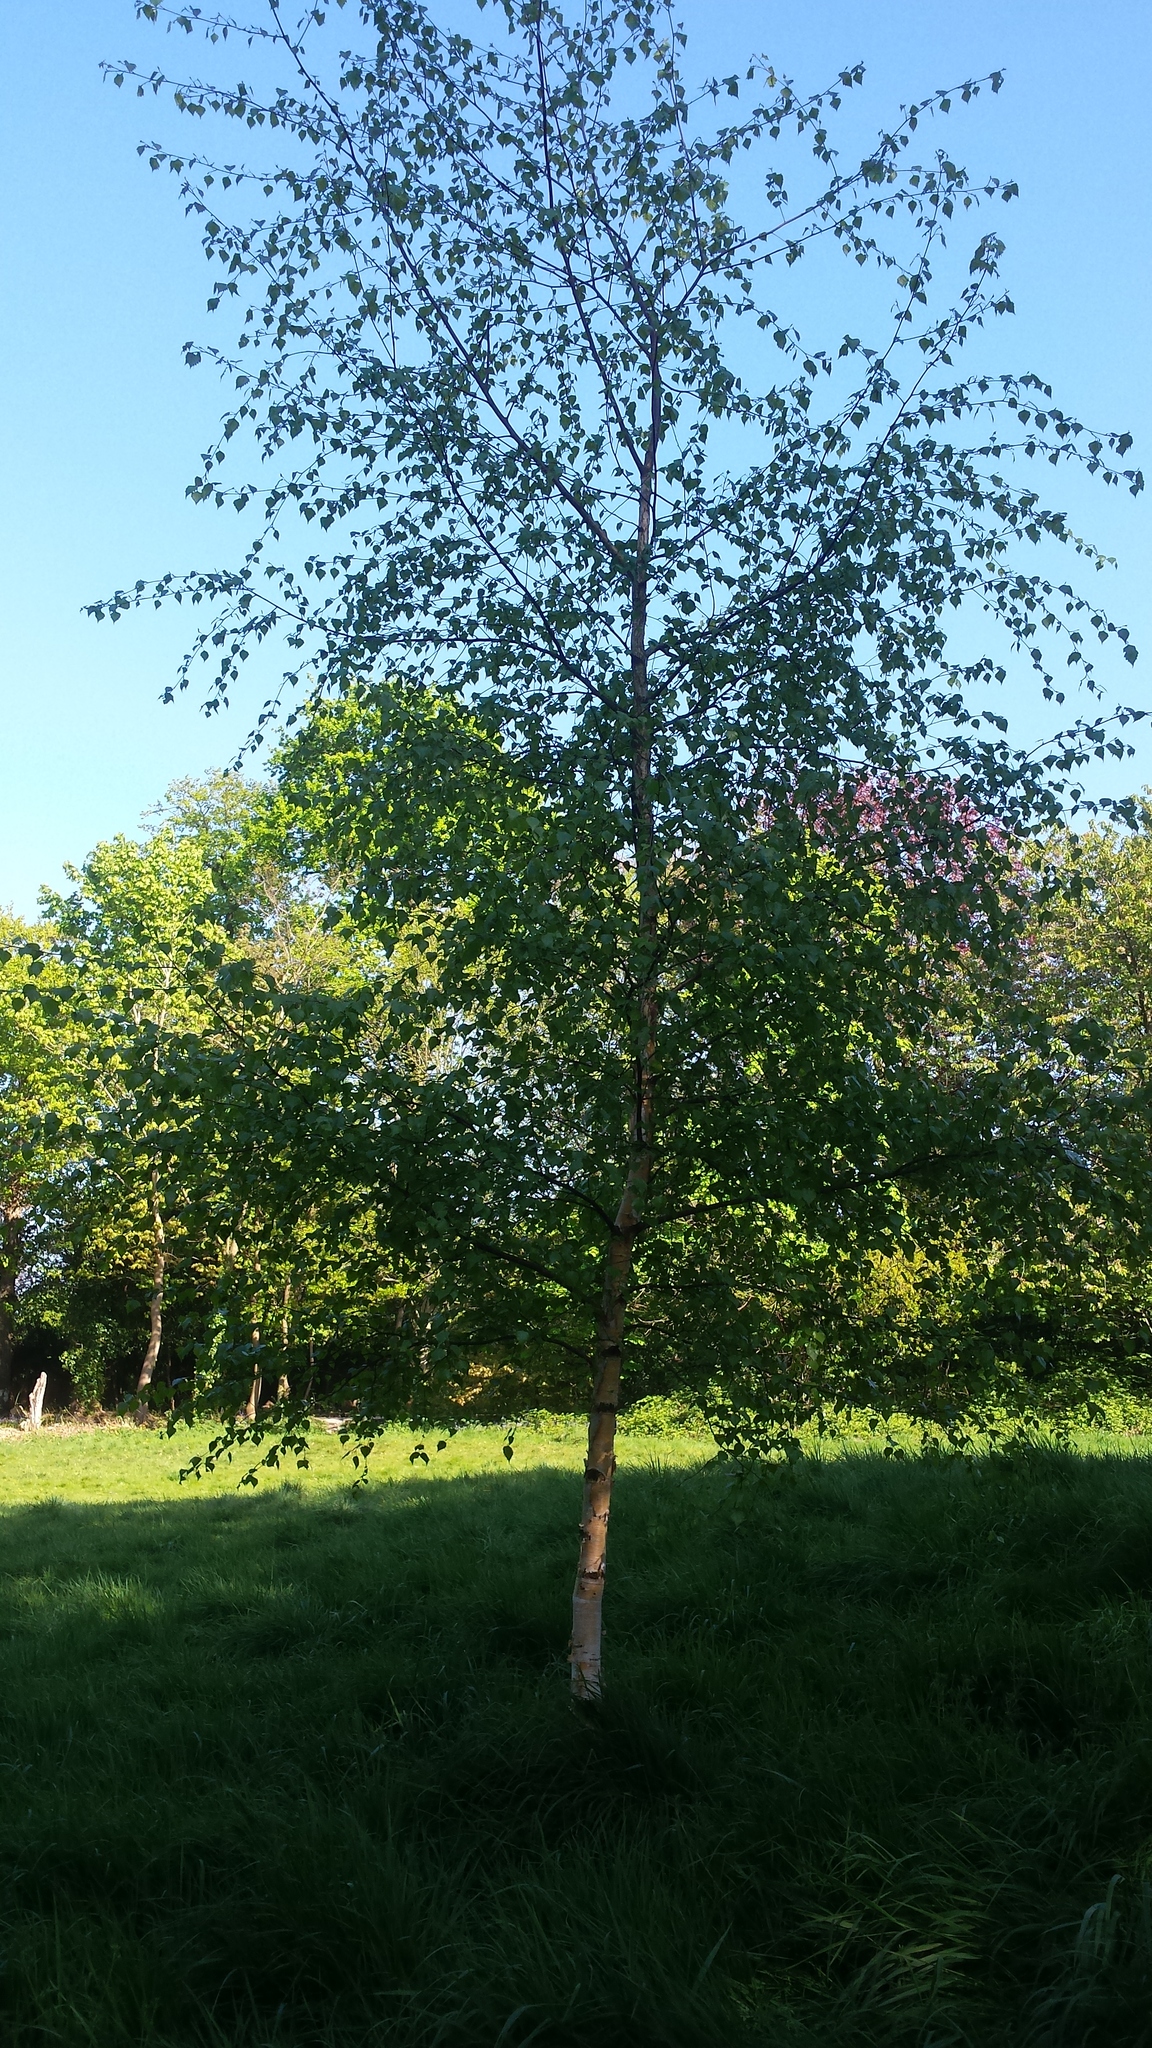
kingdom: Plantae
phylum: Tracheophyta
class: Magnoliopsida
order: Fagales
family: Betulaceae
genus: Betula
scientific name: Betula pendula
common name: Silver birch
